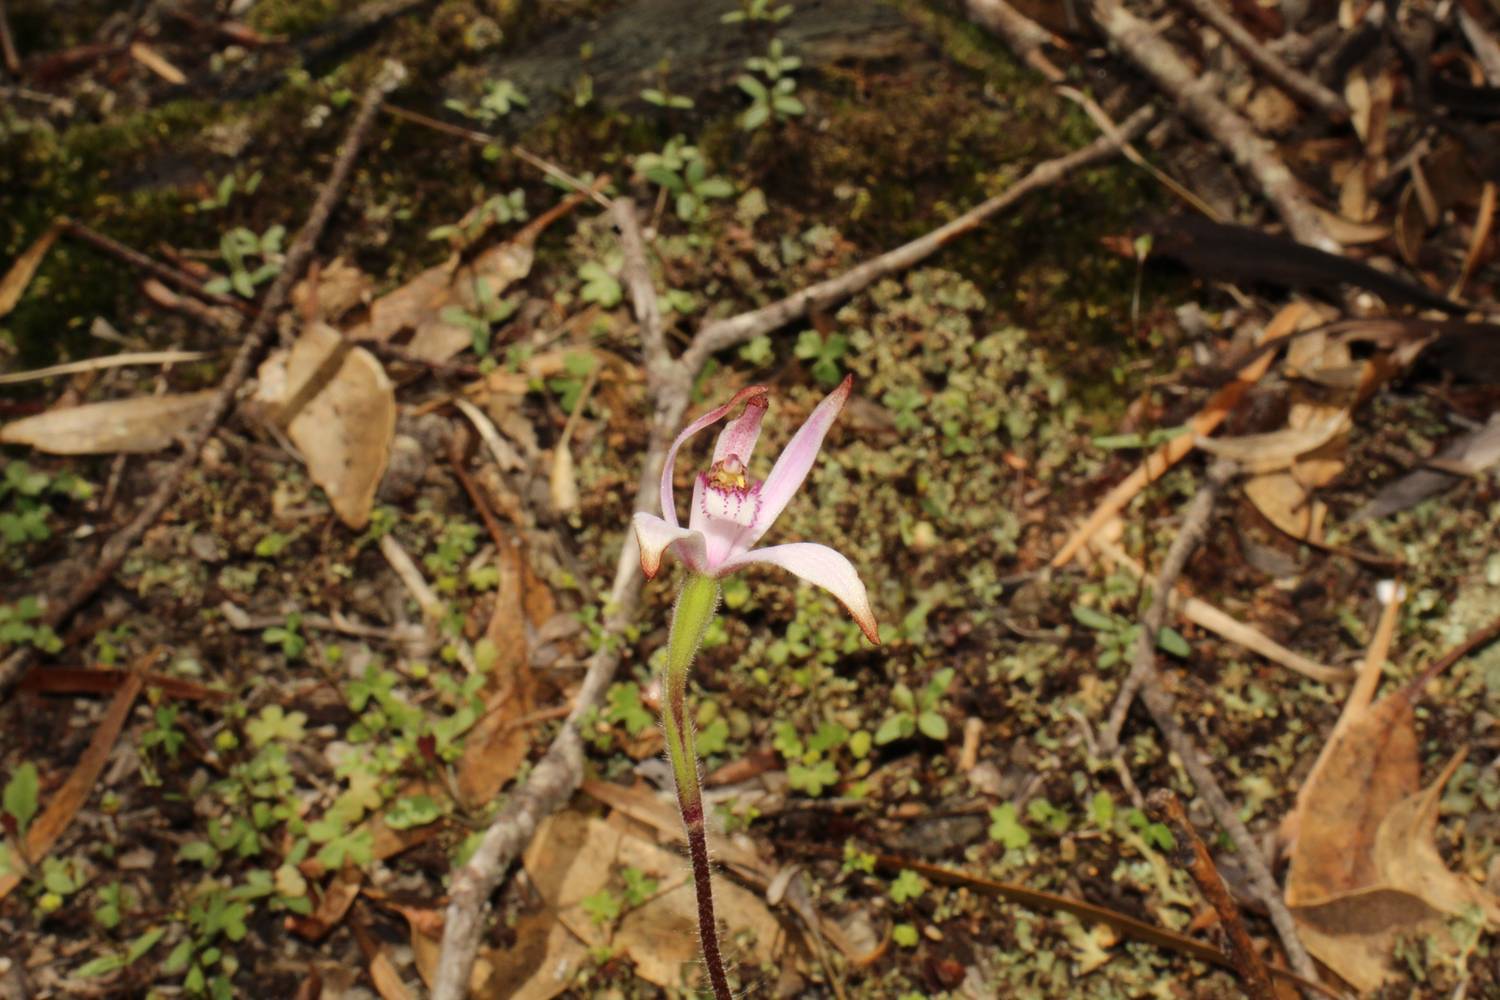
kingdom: Plantae
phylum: Tracheophyta
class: Liliopsida
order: Asparagales
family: Orchidaceae
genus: Caladenia
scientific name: Caladenia hirta
